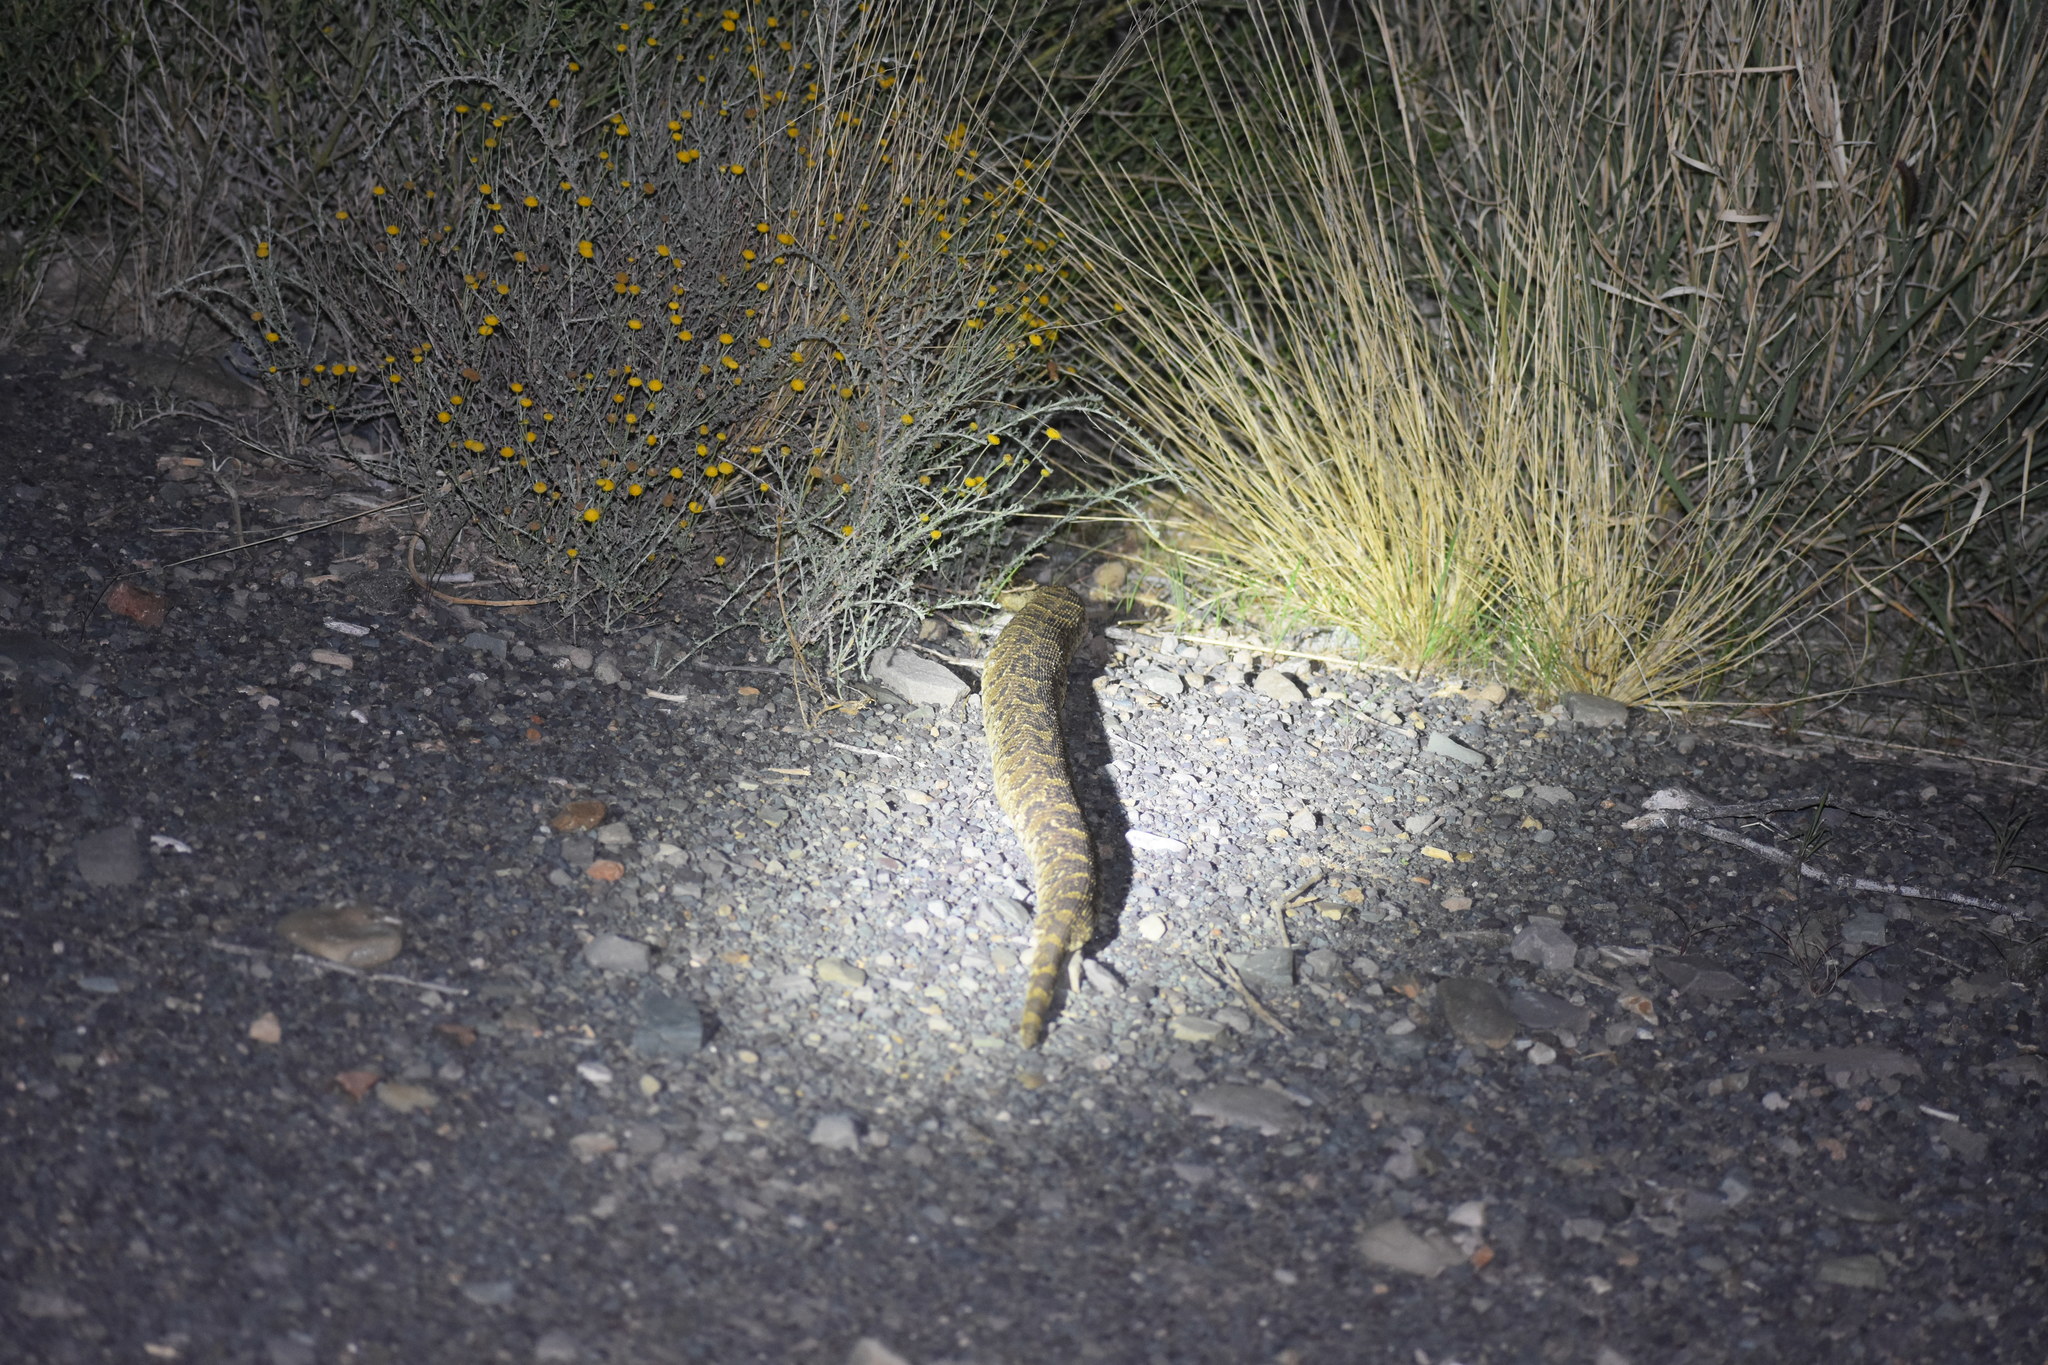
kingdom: Animalia
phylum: Chordata
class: Squamata
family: Viperidae
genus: Bitis
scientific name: Bitis arietans
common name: Puff adder
